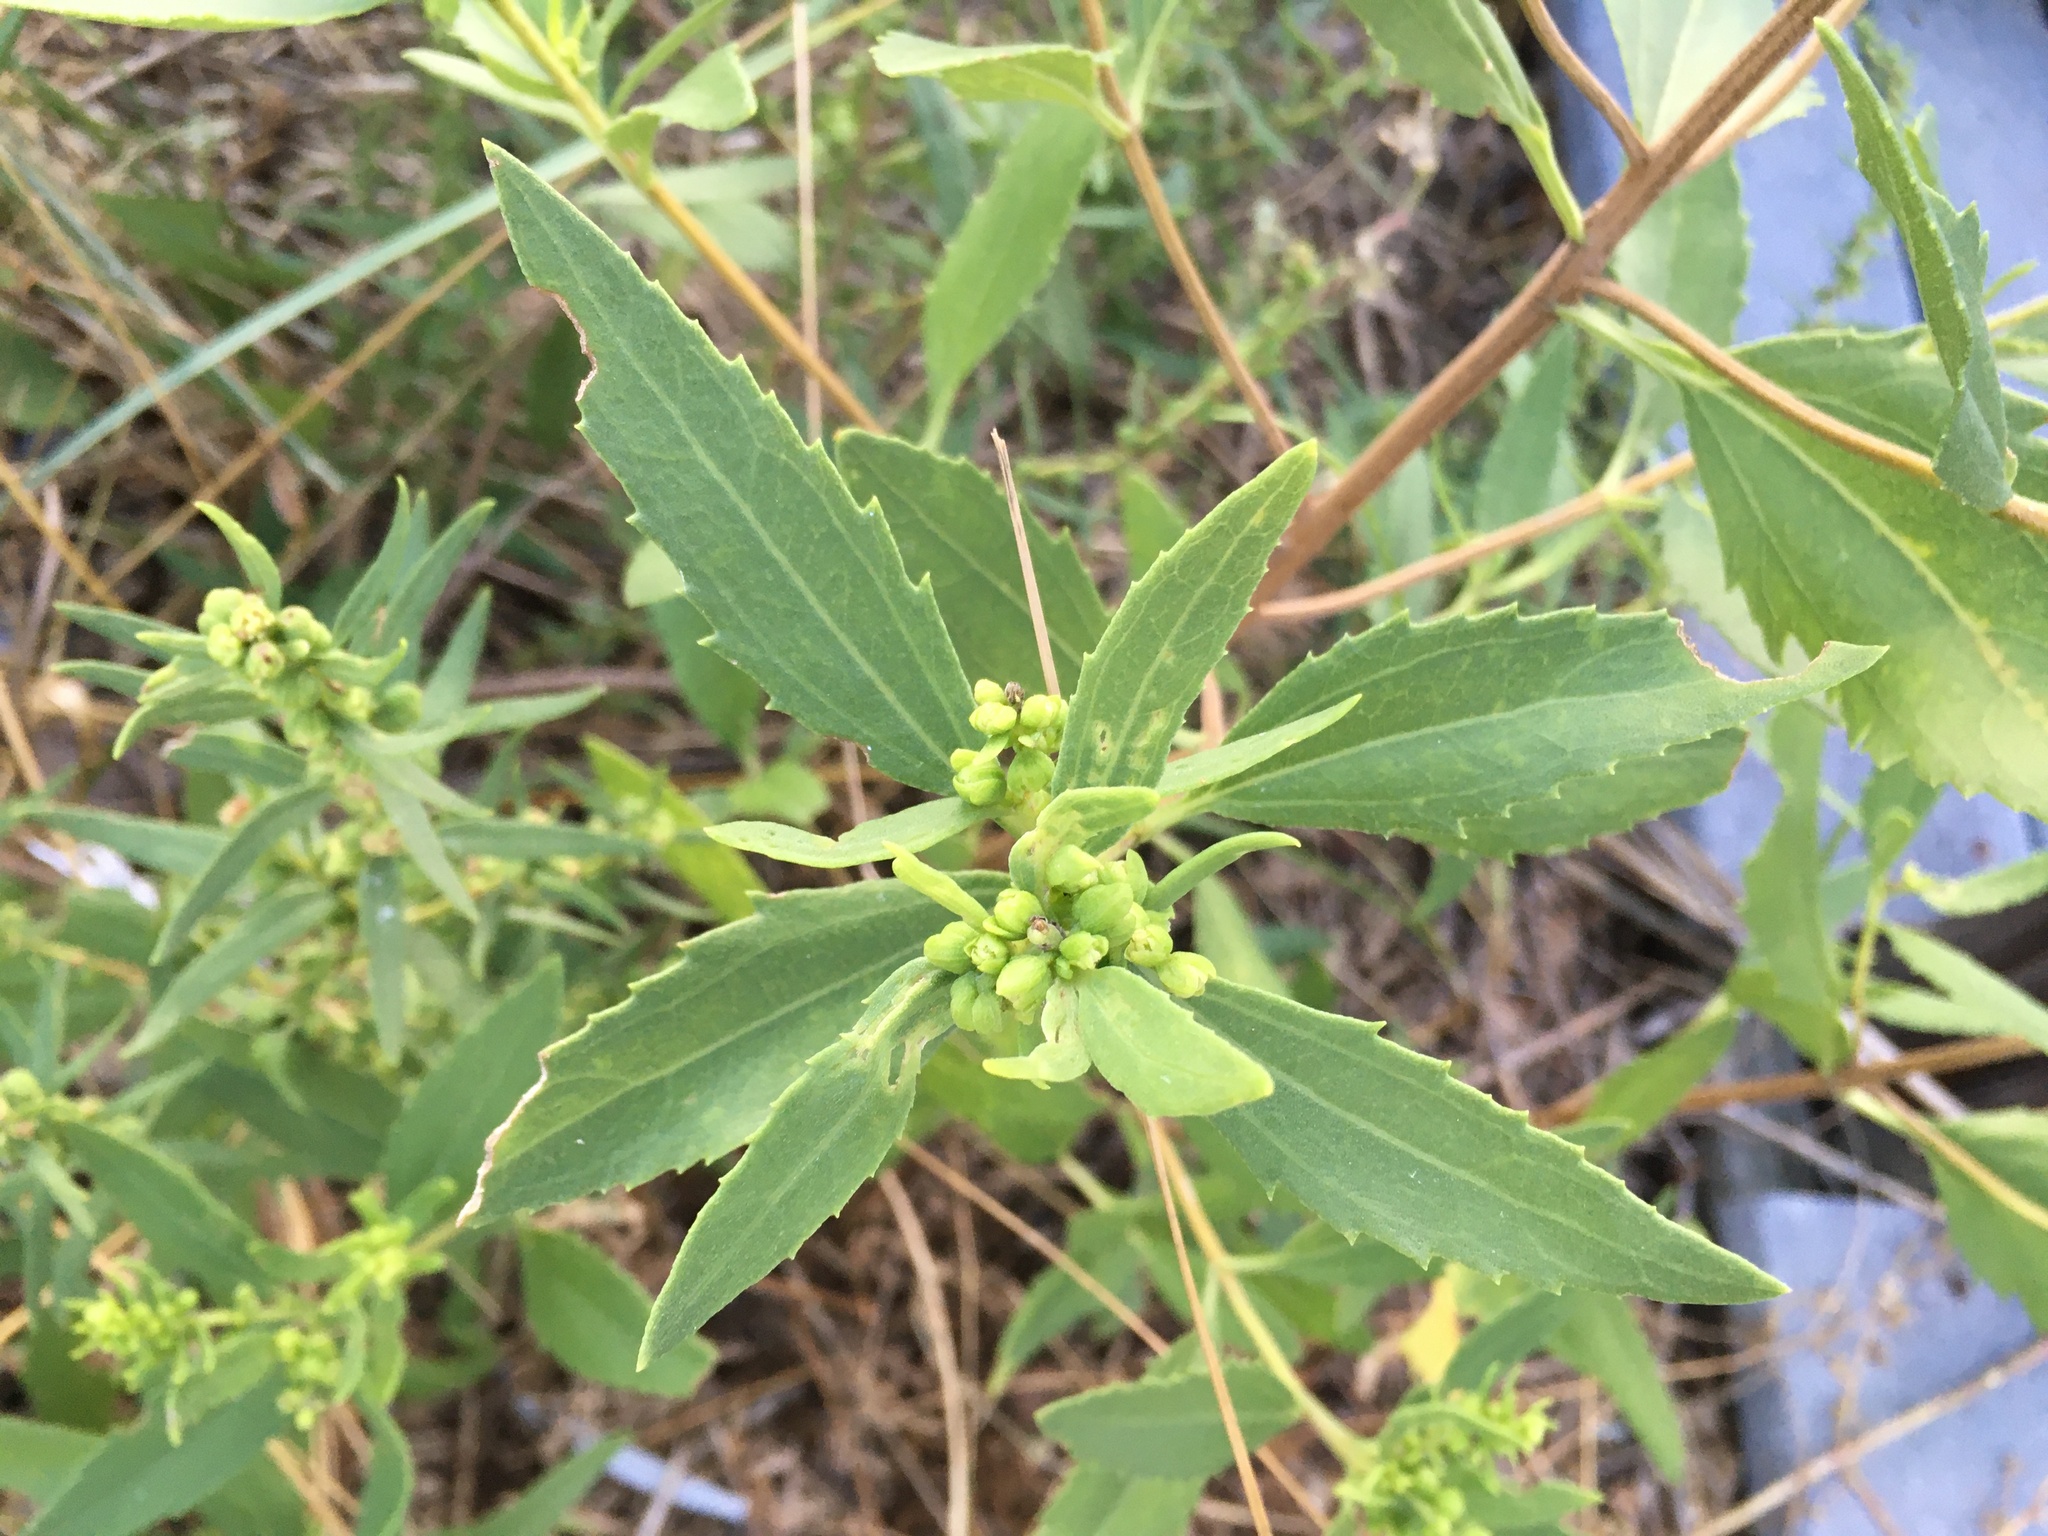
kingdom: Plantae
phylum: Tracheophyta
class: Magnoliopsida
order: Asterales
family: Asteraceae
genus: Iva
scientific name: Iva frutescens
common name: Big-leaved marsh-elder
